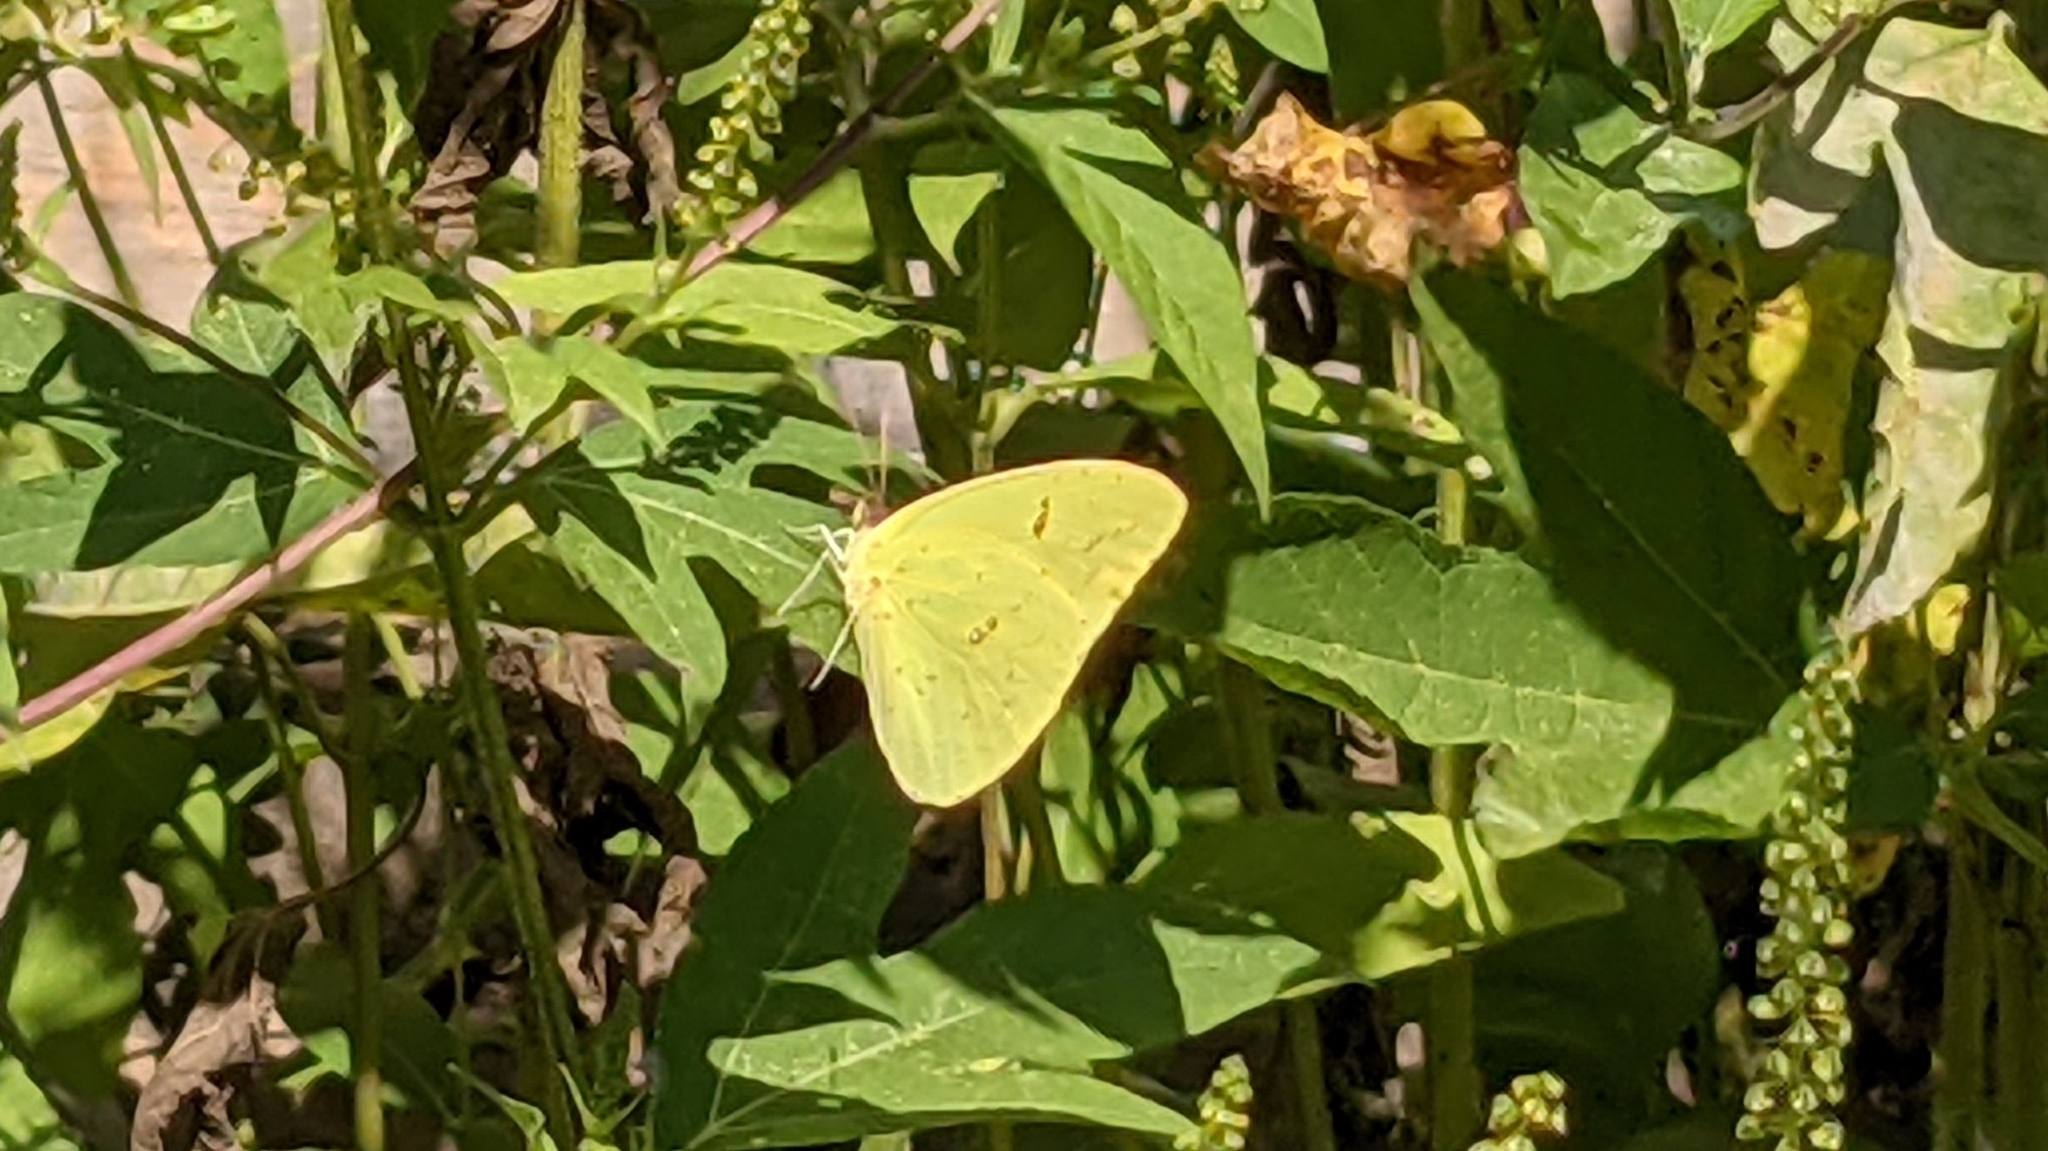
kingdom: Animalia
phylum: Arthropoda
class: Insecta
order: Lepidoptera
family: Pieridae
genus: Phoebis
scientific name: Phoebis sennae
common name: Cloudless sulphur
